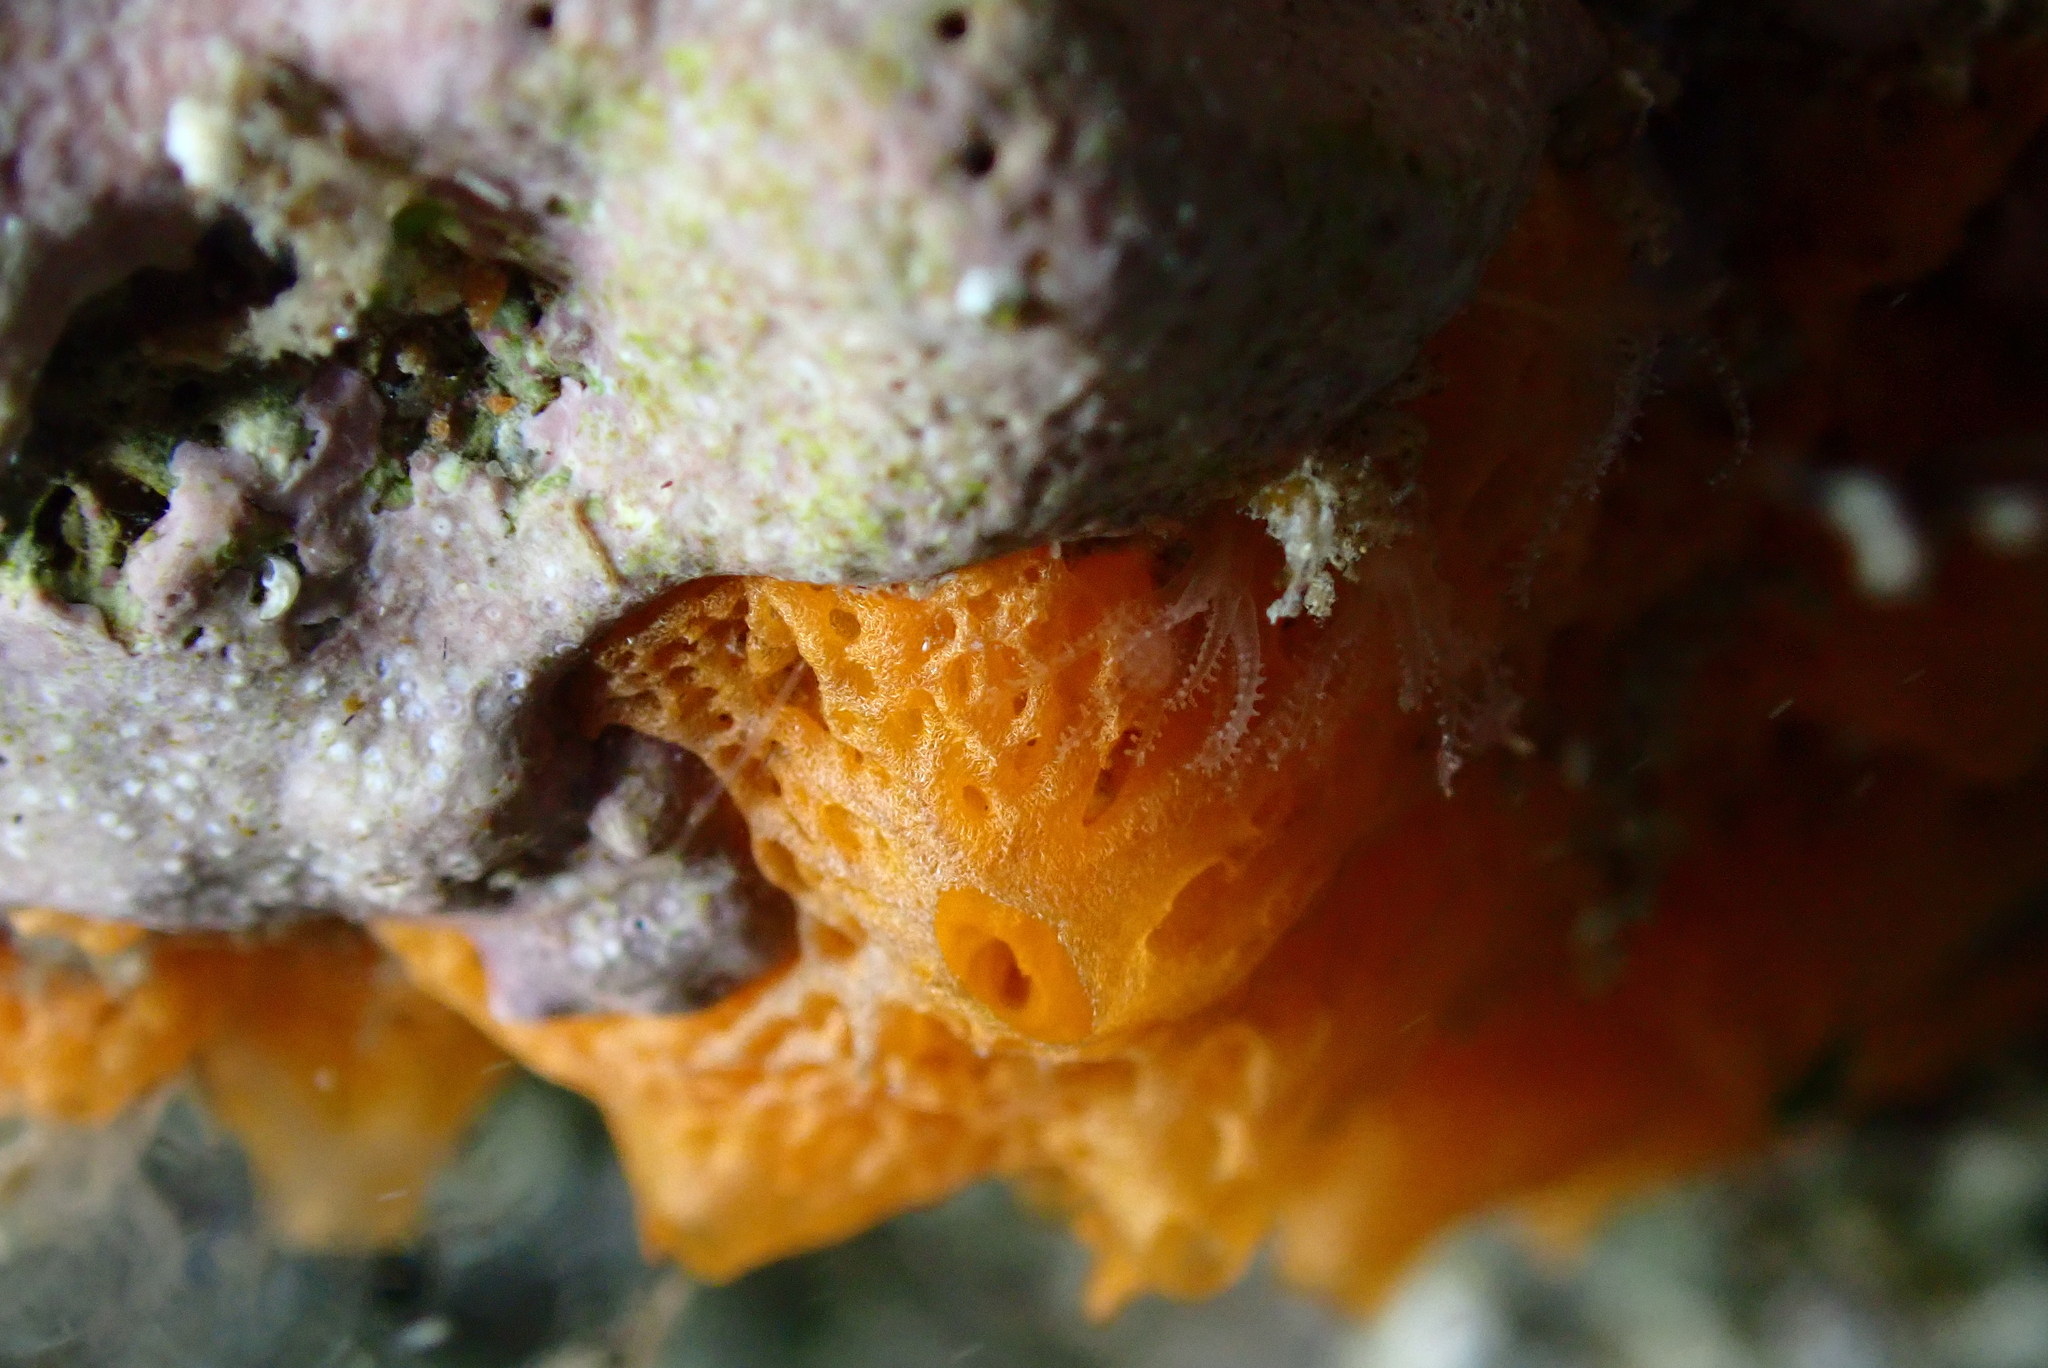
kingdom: Animalia
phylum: Porifera
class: Calcarea
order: Clathrinida
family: Clathrinidae
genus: Clathrina
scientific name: Clathrina rubra
